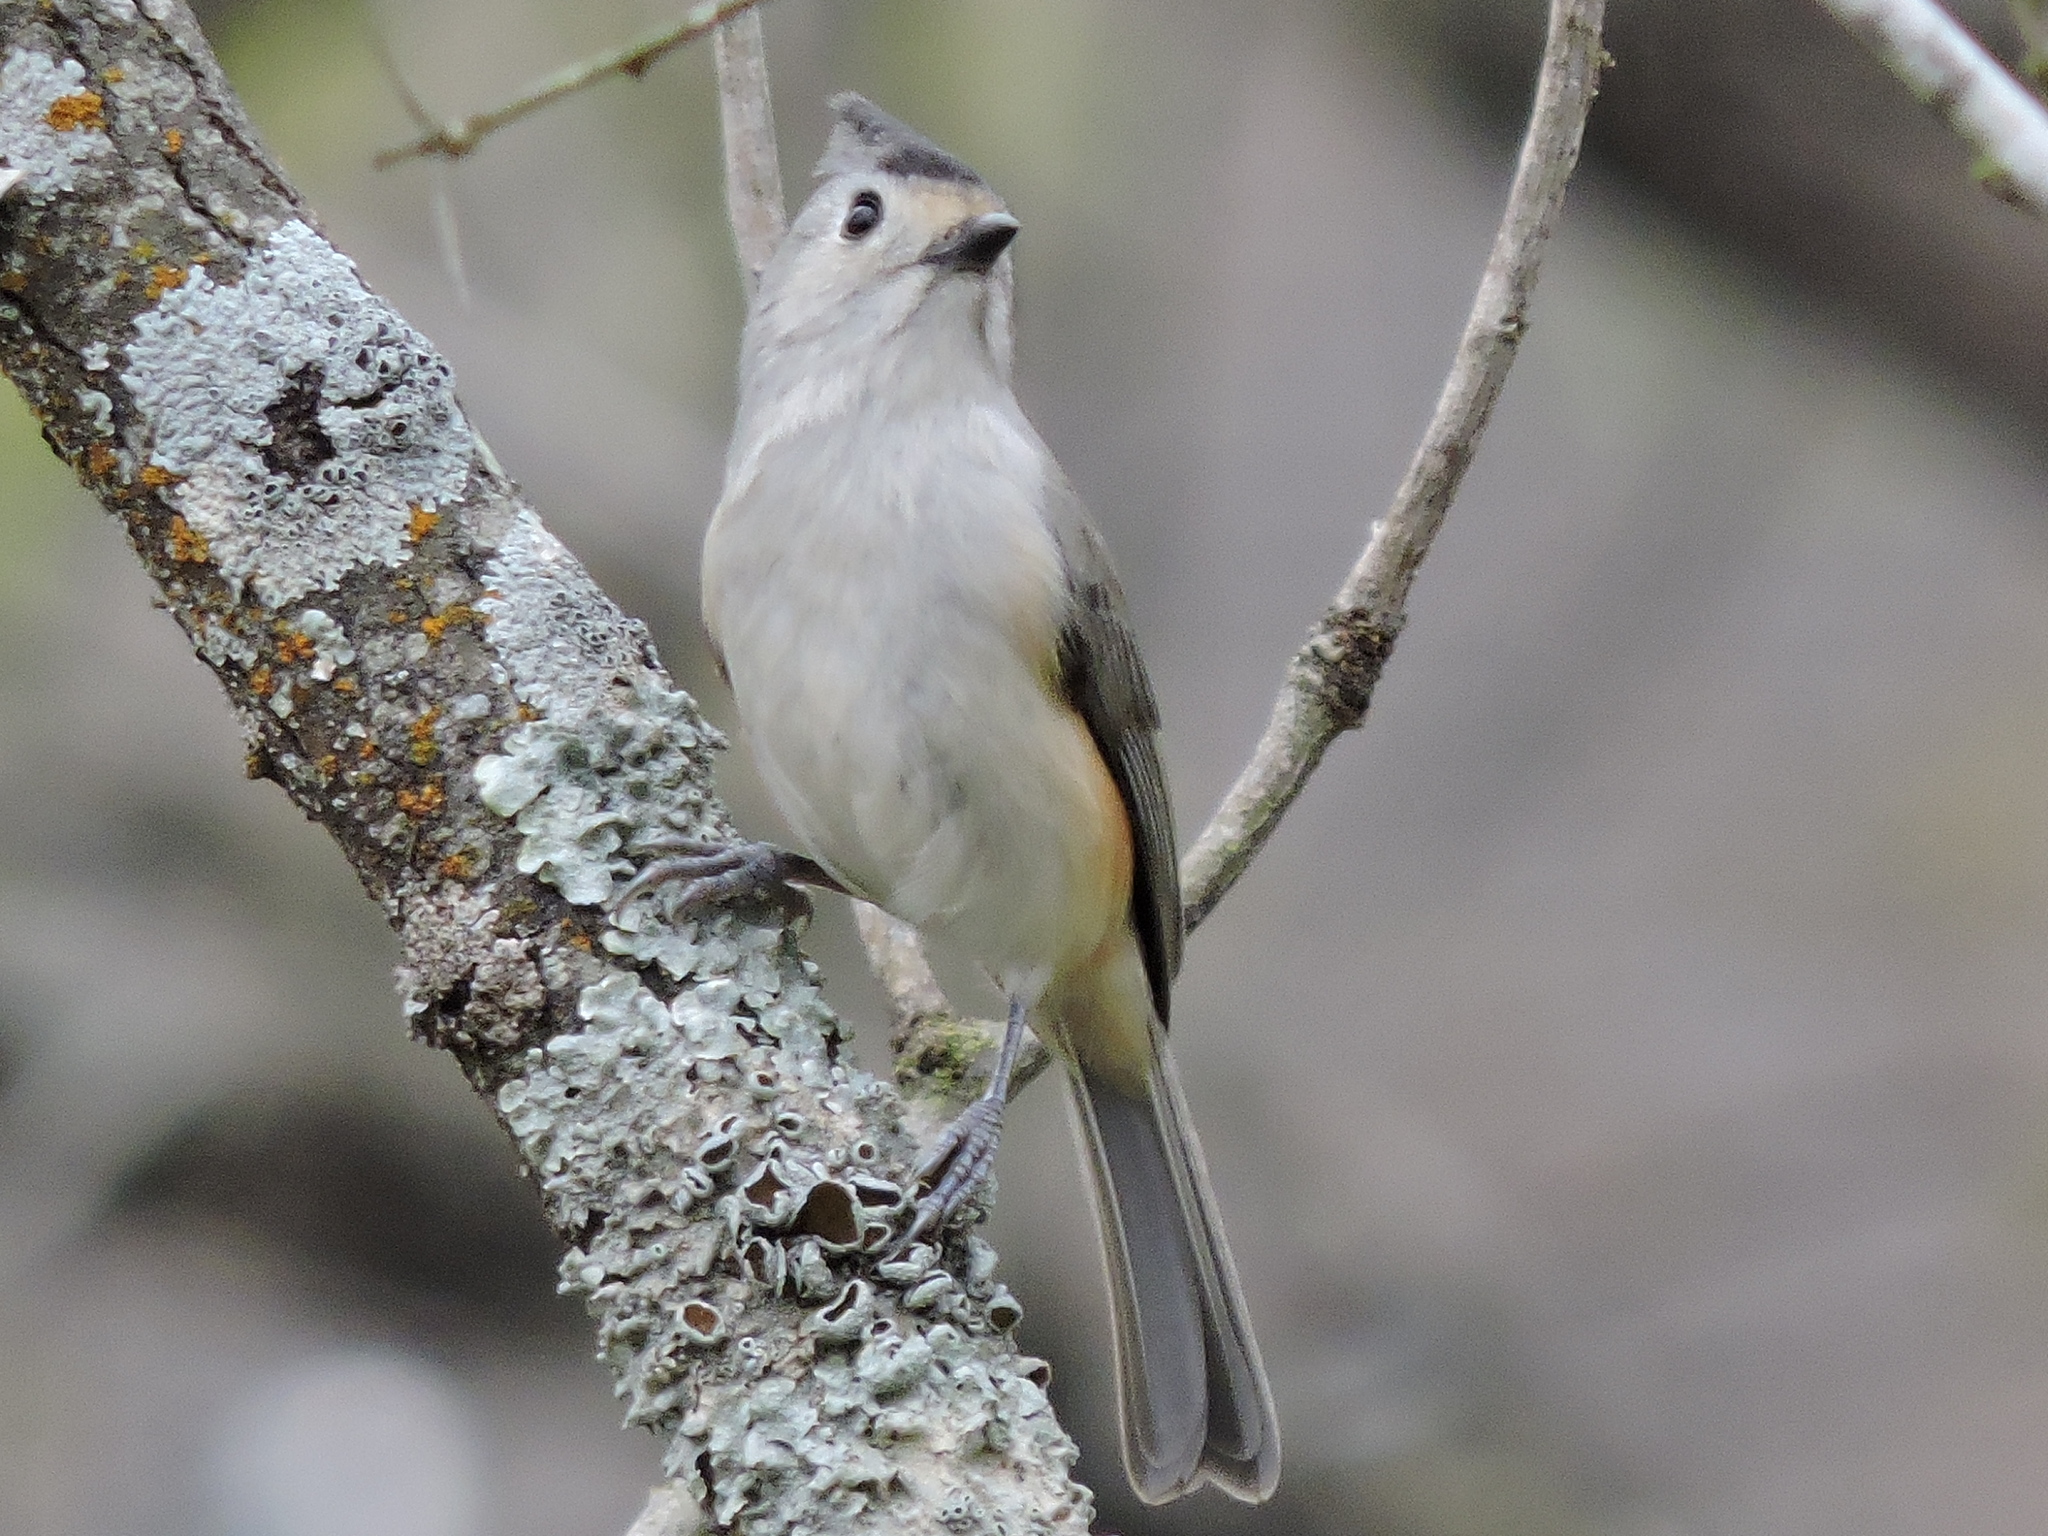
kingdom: Animalia
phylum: Chordata
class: Aves
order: Passeriformes
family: Paridae
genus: Baeolophus
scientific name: Baeolophus atricristatus
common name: Black-crested titmouse
